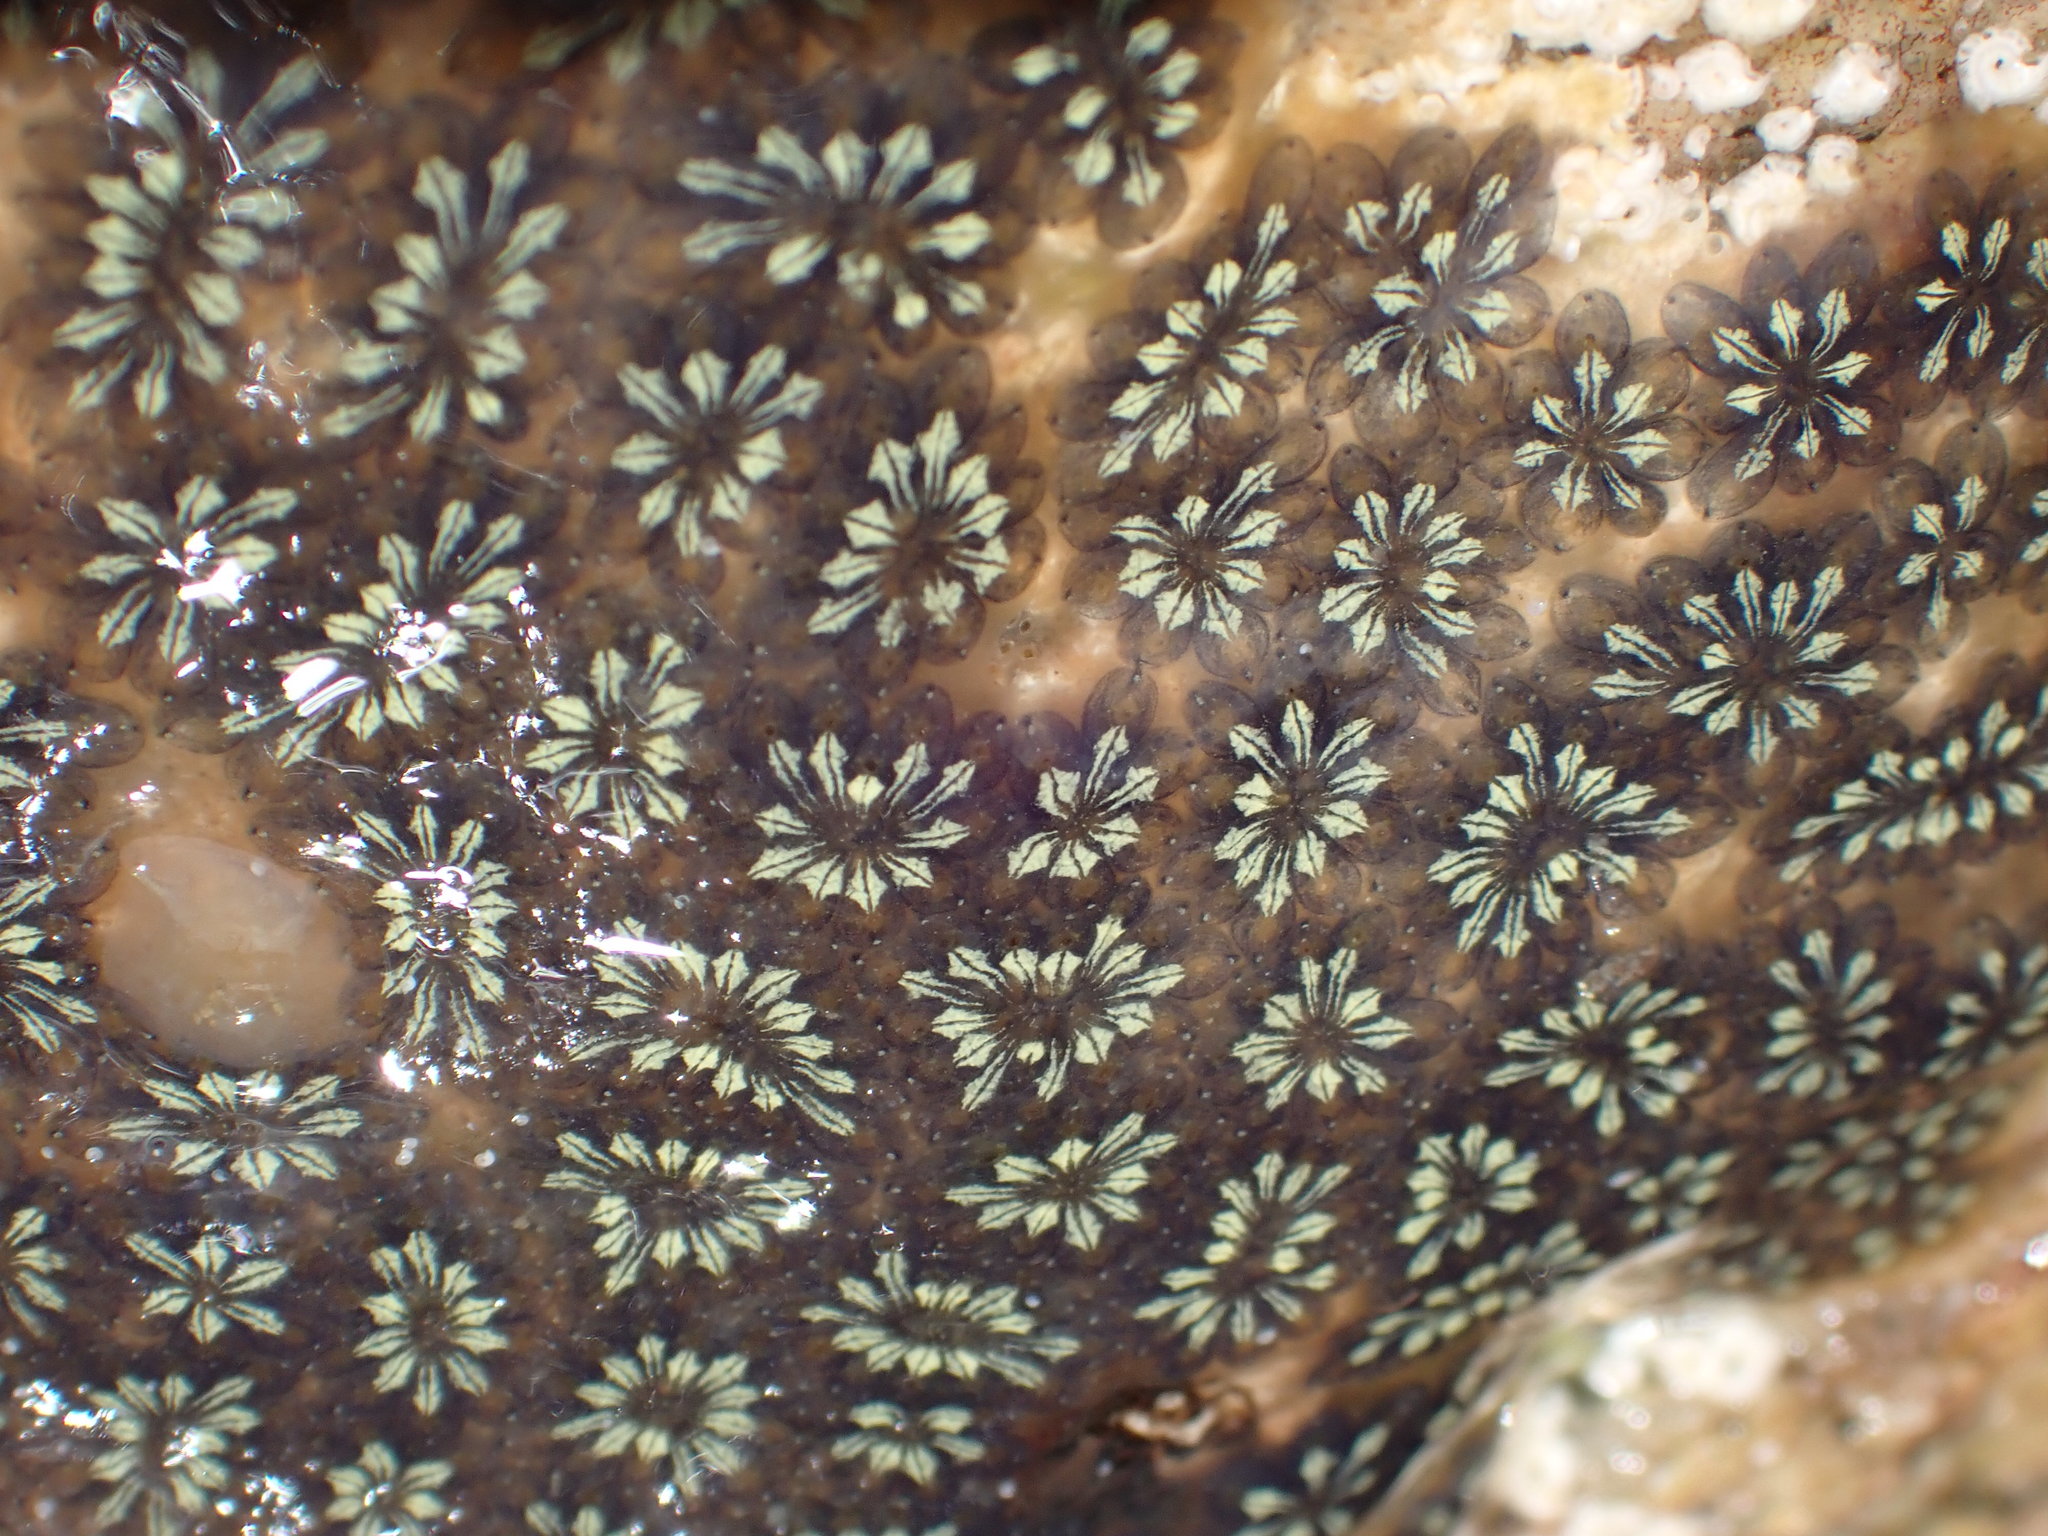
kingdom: Animalia
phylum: Chordata
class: Ascidiacea
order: Stolidobranchia
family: Styelidae
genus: Botryllus
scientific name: Botryllus schlosseri
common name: Golden star tunicate
